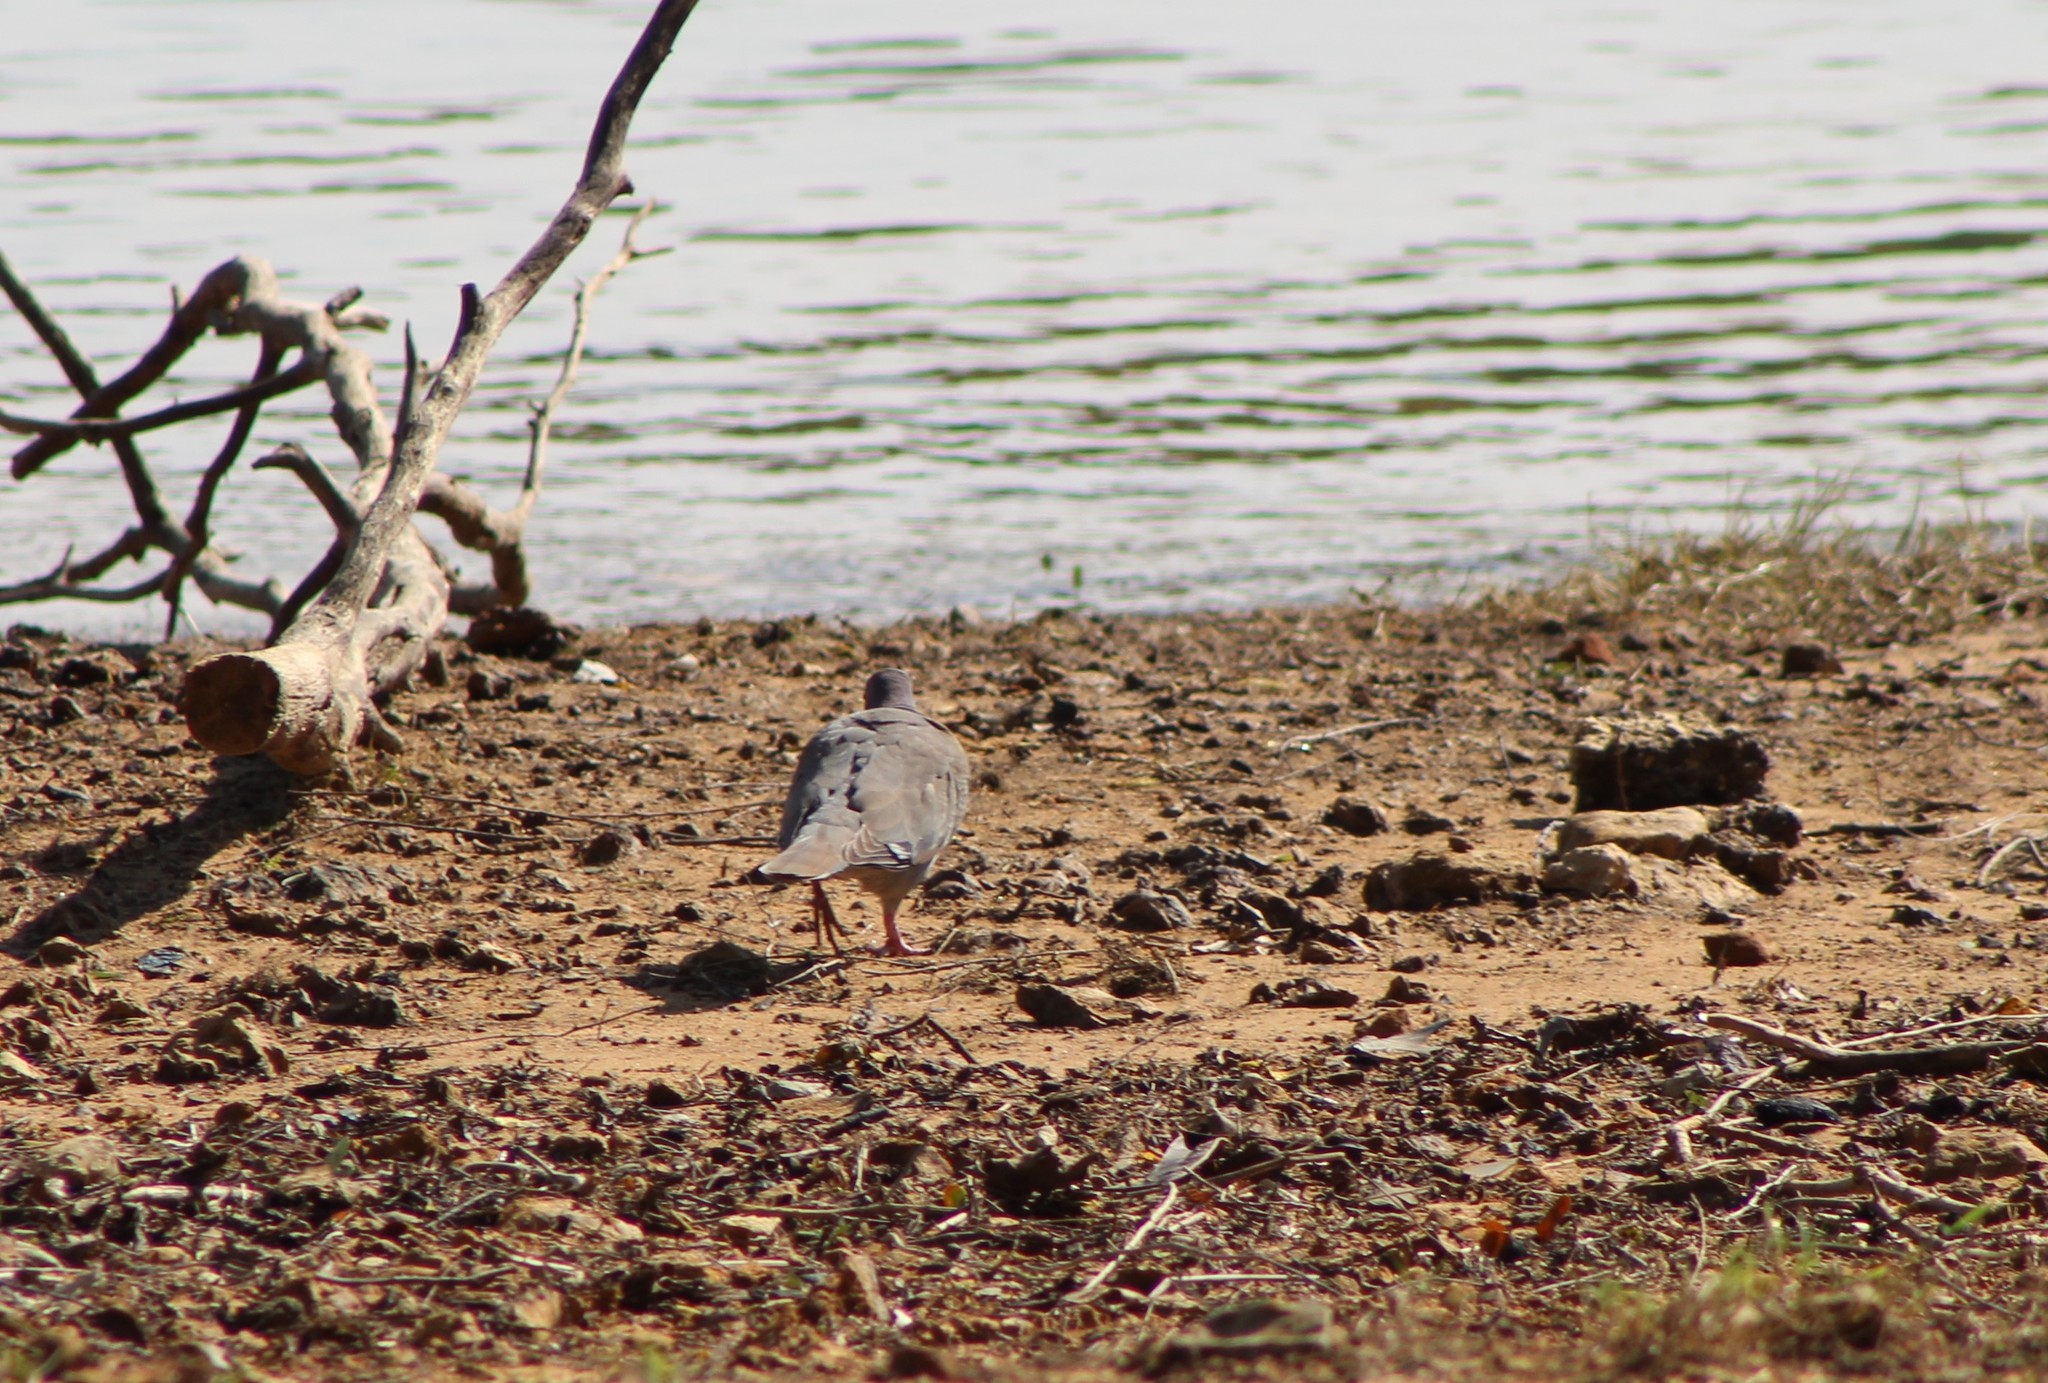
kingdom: Animalia
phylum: Chordata
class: Aves
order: Columbiformes
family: Columbidae
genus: Zenaida
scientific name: Zenaida asiatica
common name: White-winged dove
